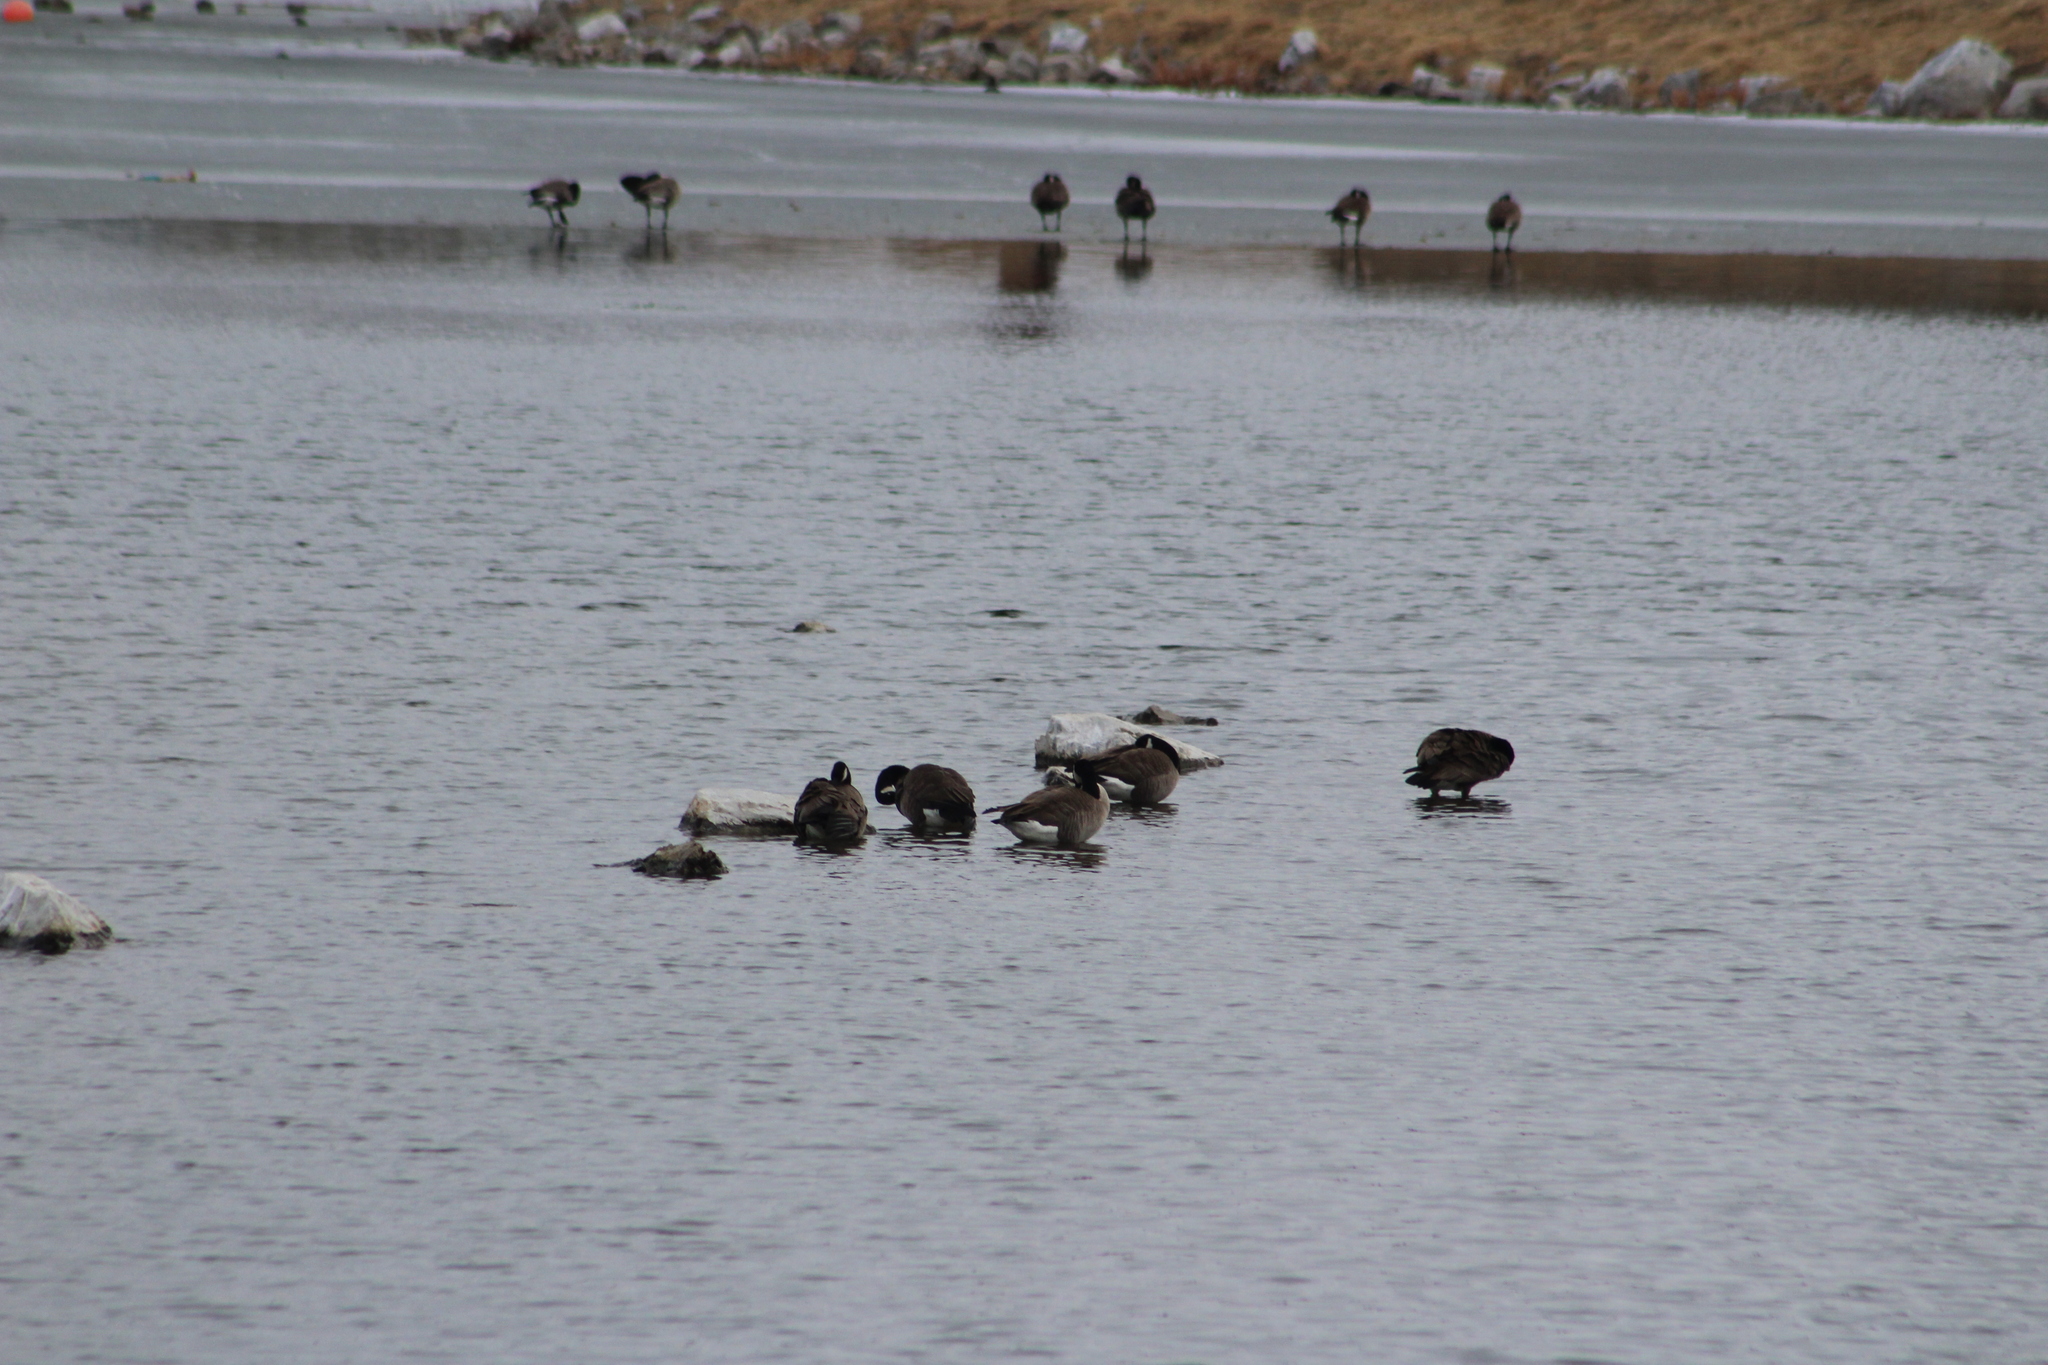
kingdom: Animalia
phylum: Chordata
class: Aves
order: Anseriformes
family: Anatidae
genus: Branta
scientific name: Branta canadensis
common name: Canada goose
